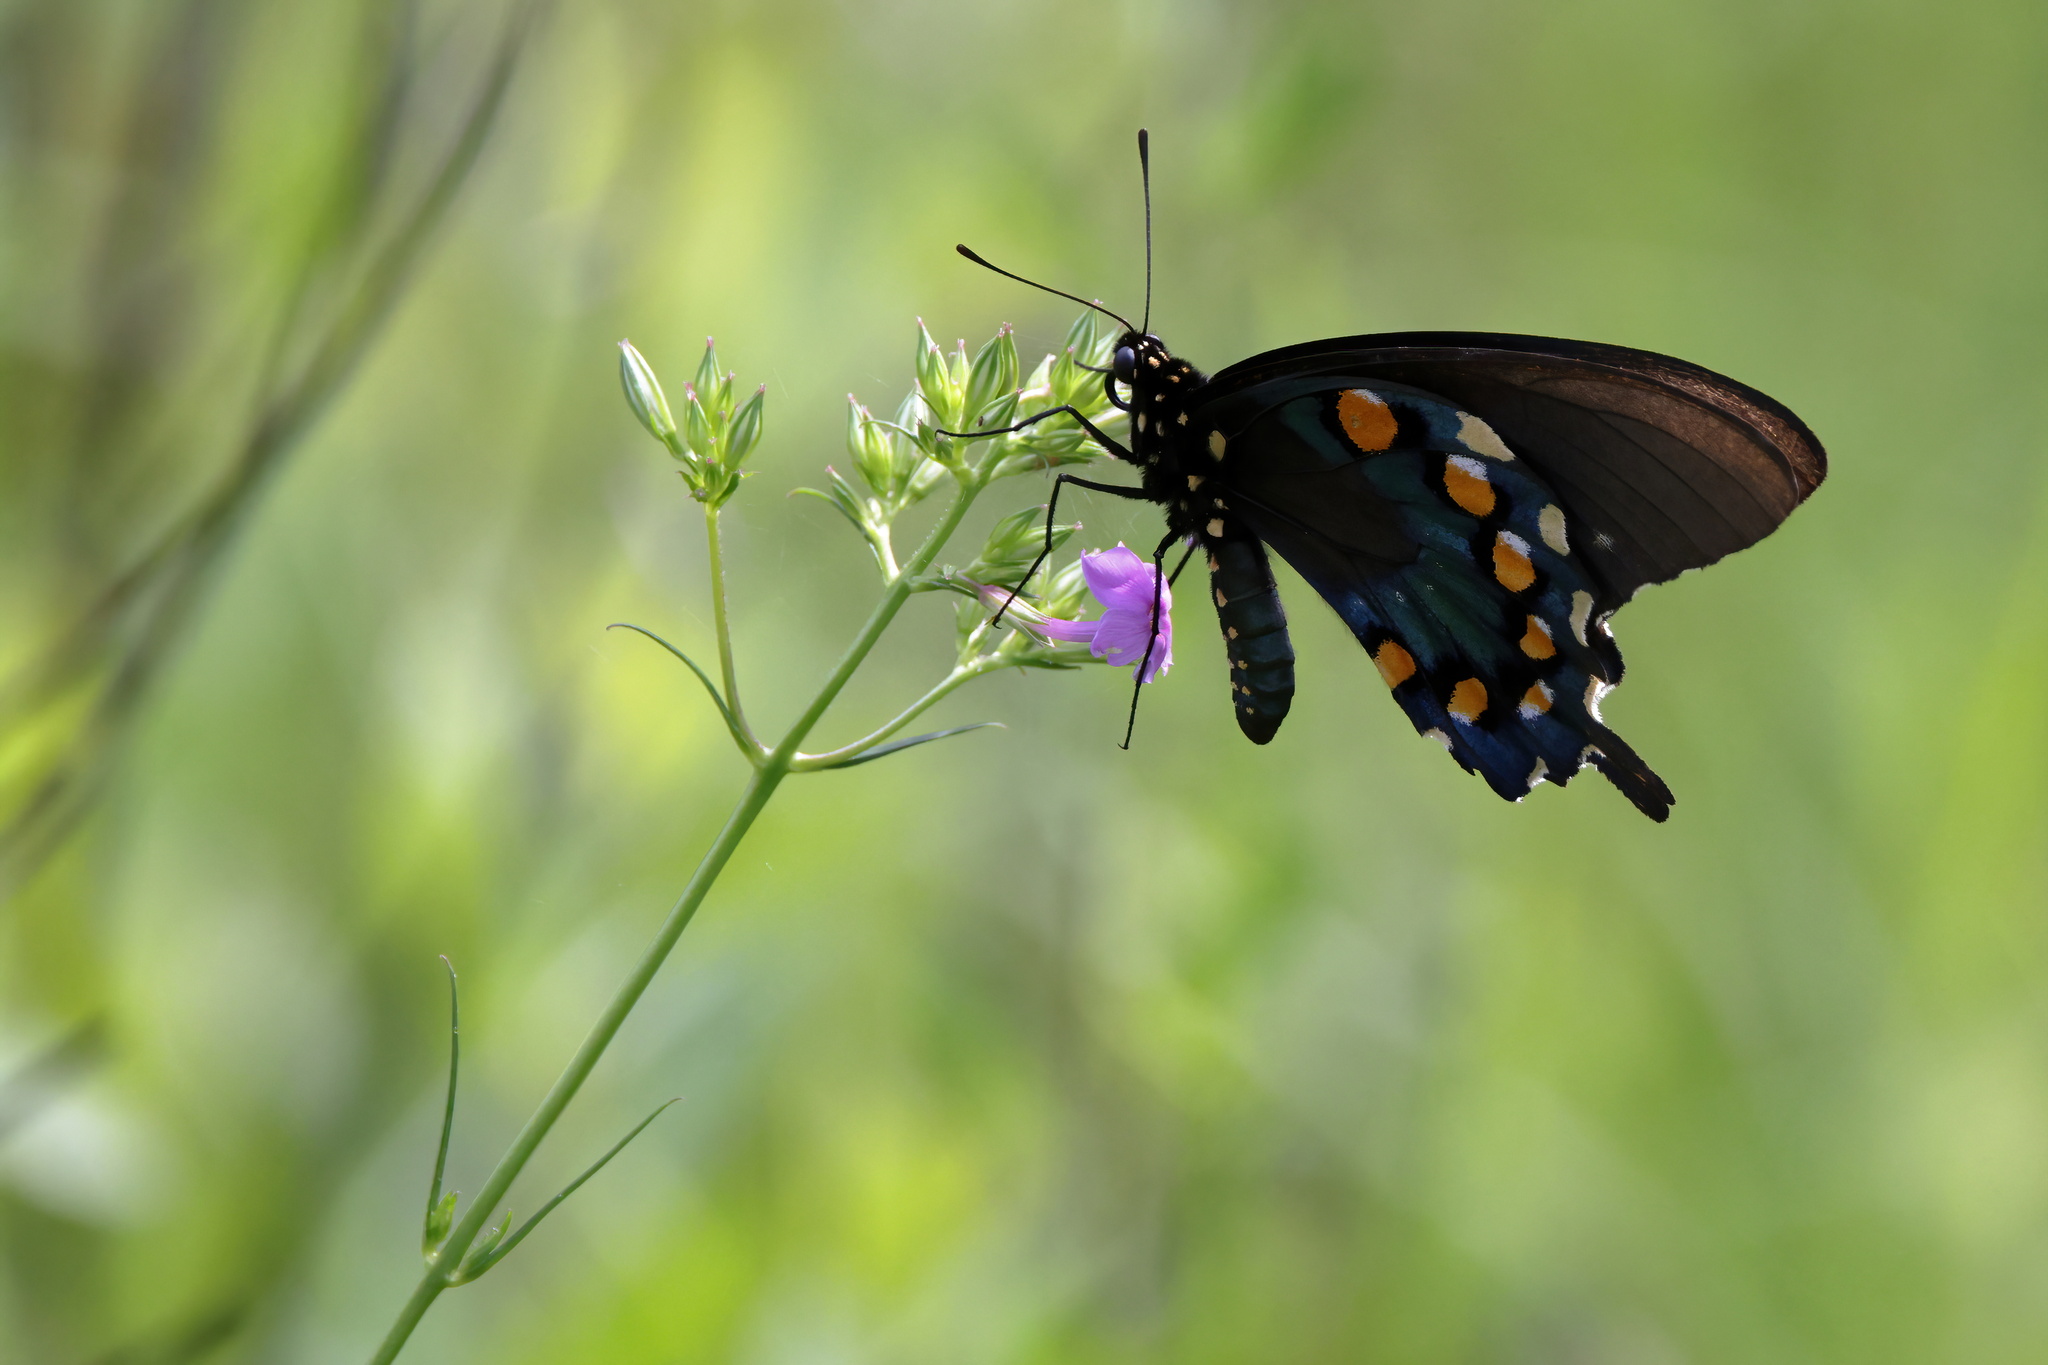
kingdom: Animalia
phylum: Arthropoda
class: Insecta
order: Lepidoptera
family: Papilionidae
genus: Battus
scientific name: Battus philenor
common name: Pipevine swallowtail
